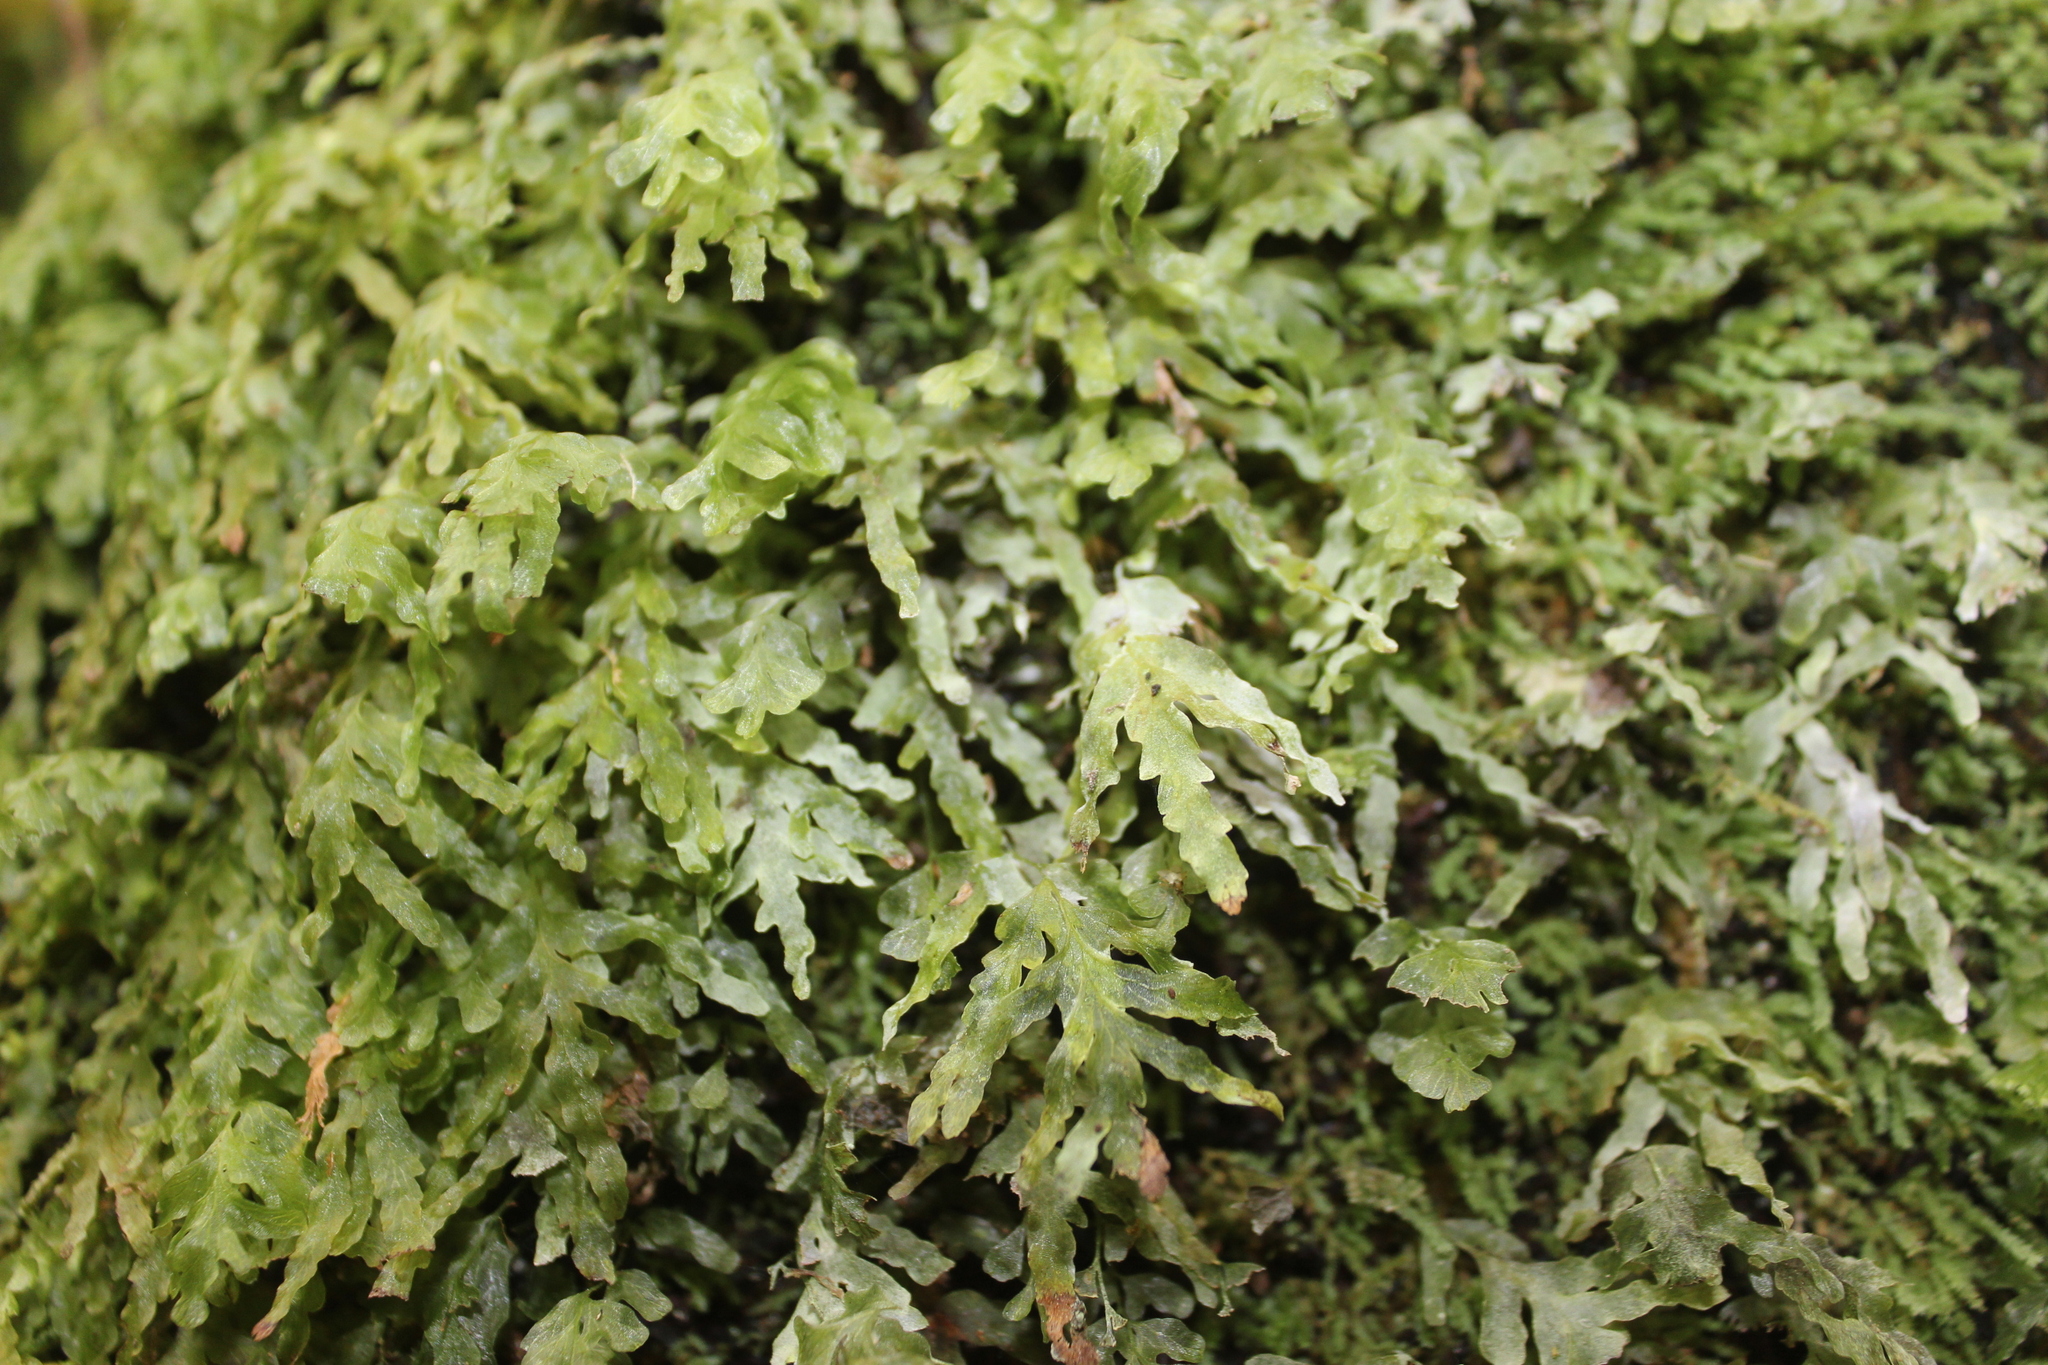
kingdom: Plantae
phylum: Tracheophyta
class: Polypodiopsida
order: Hymenophyllales
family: Hymenophyllaceae
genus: Polyphlebium
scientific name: Polyphlebium venosum
